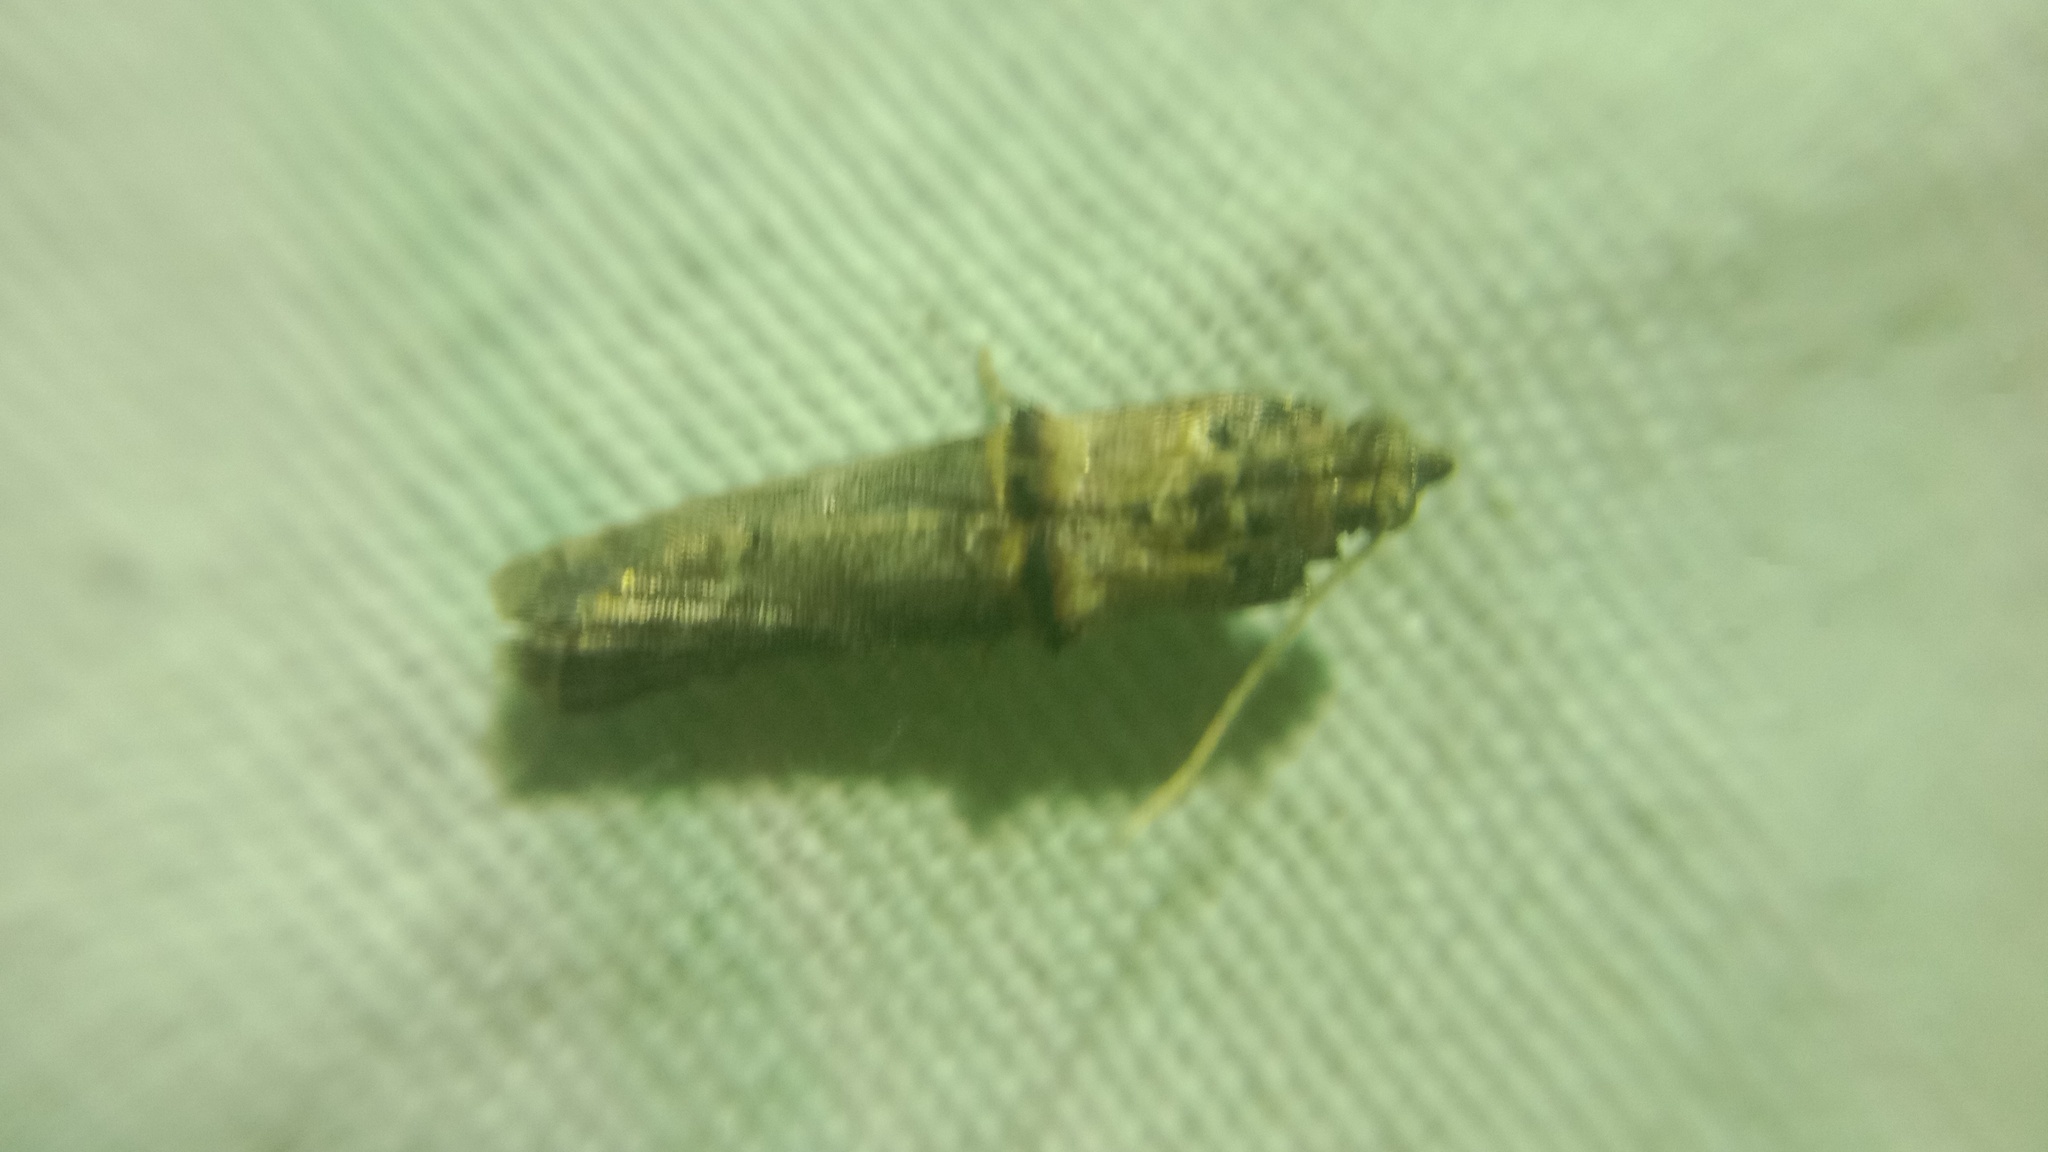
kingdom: Animalia
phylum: Arthropoda
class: Insecta
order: Lepidoptera
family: Pyralidae
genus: Trachonitis
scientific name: Trachonitis cristella
